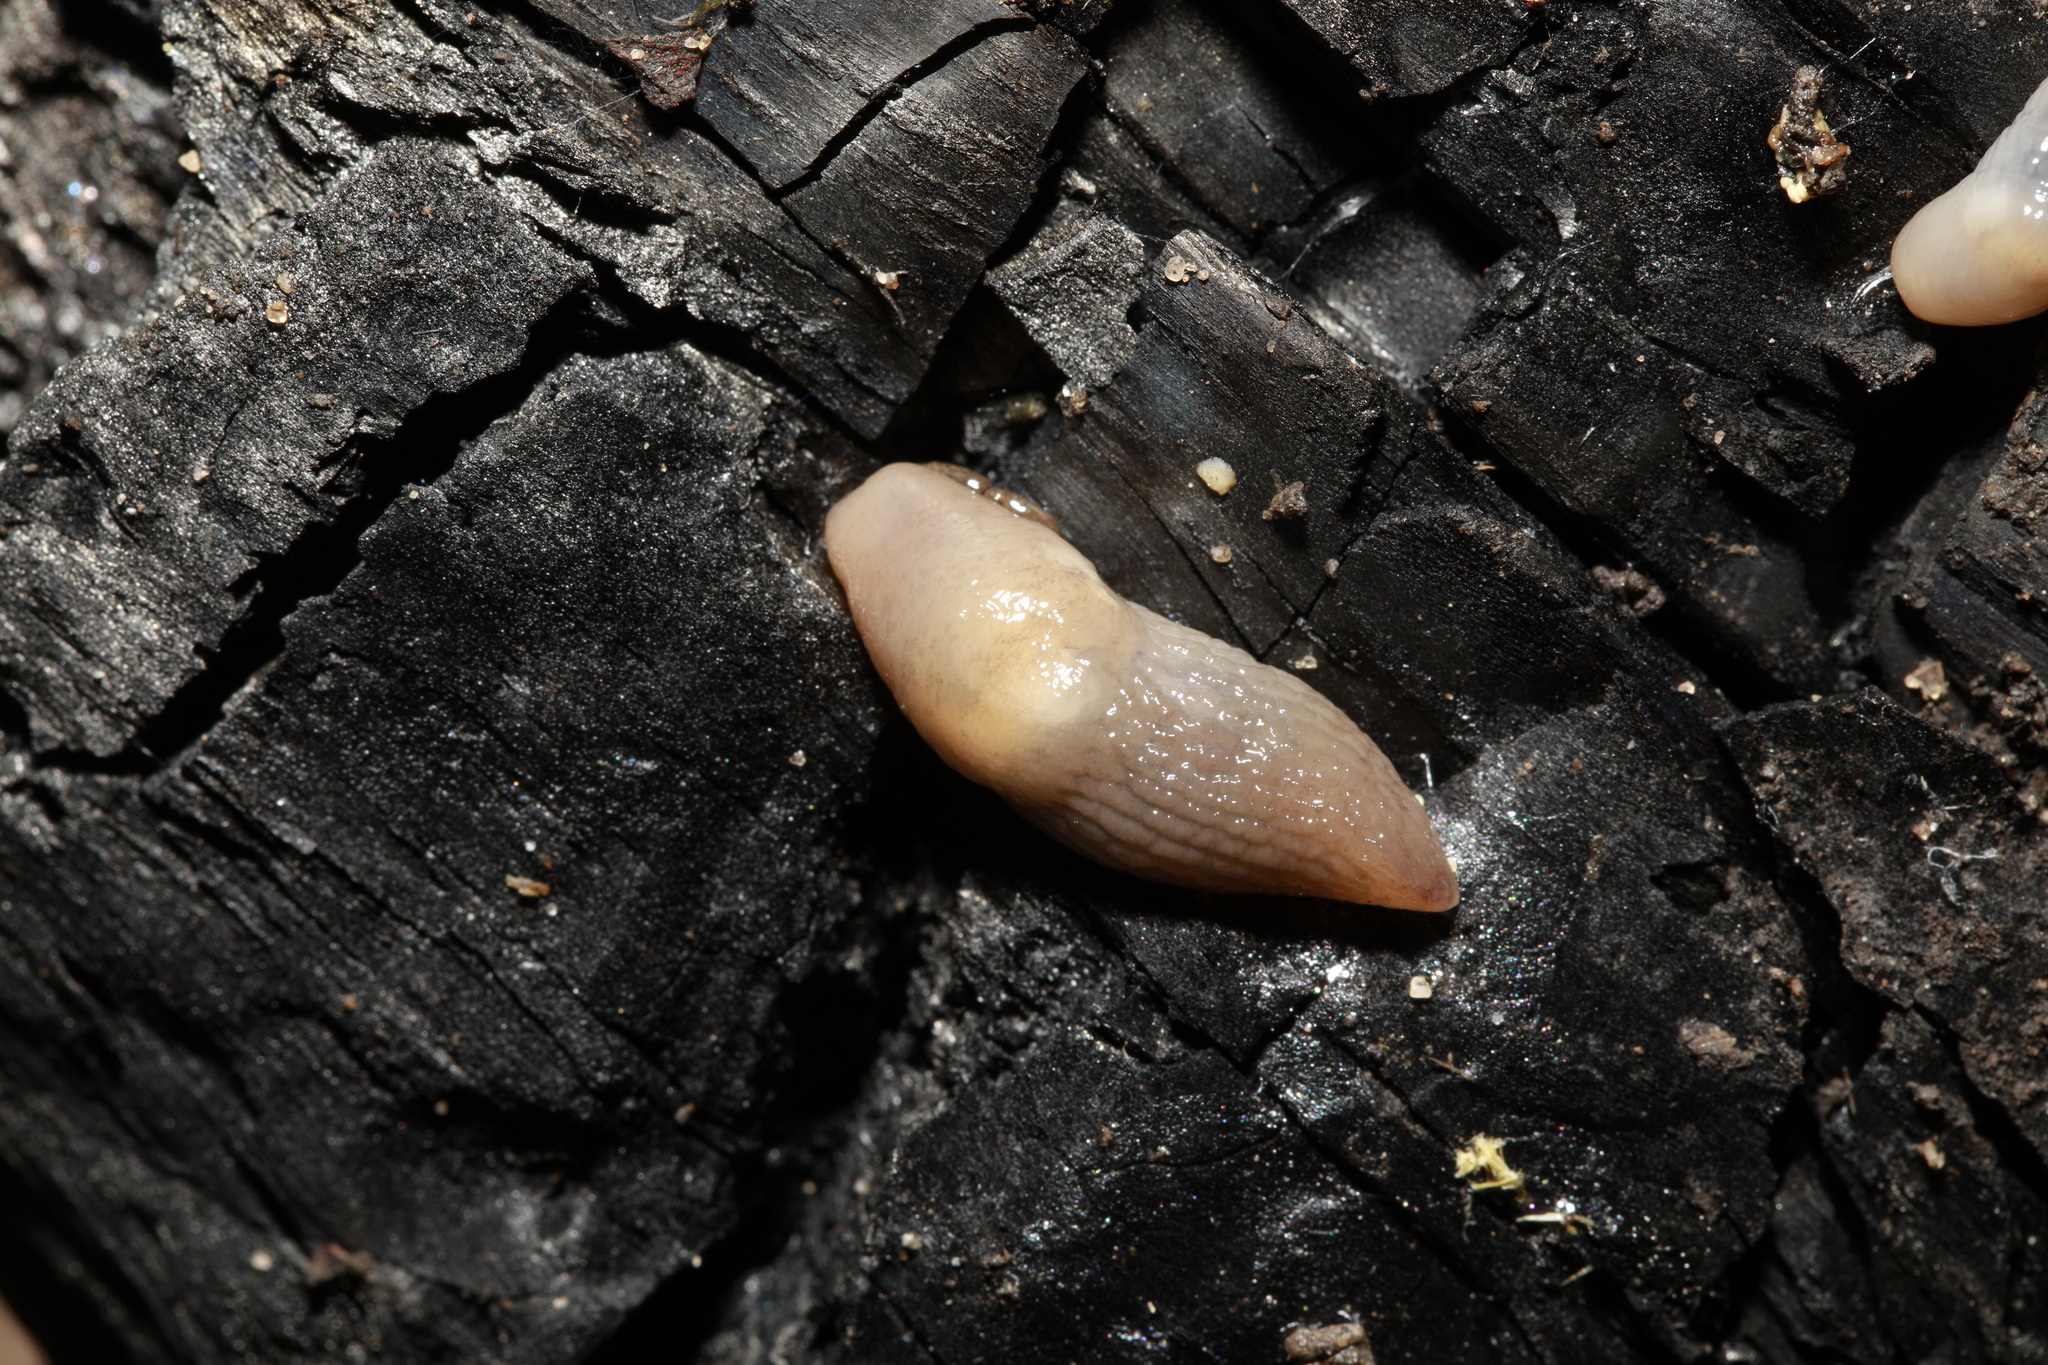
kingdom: Animalia
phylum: Mollusca
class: Gastropoda
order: Stylommatophora
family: Agriolimacidae
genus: Deroceras
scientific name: Deroceras reticulatum
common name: Gray field slug
